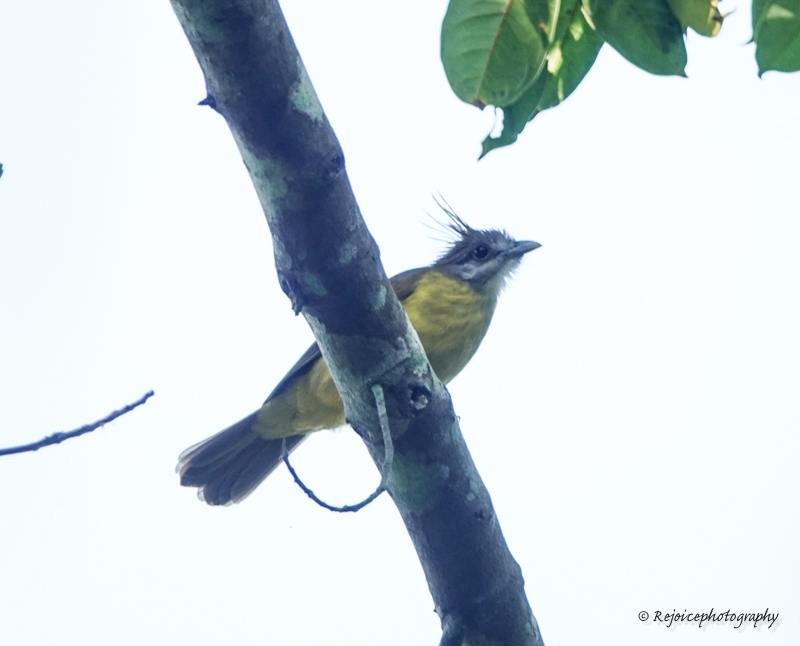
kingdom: Animalia
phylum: Chordata
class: Aves
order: Passeriformes
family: Pycnonotidae
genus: Alophoixus
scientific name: Alophoixus flaveolus
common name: White-throated bulbul
